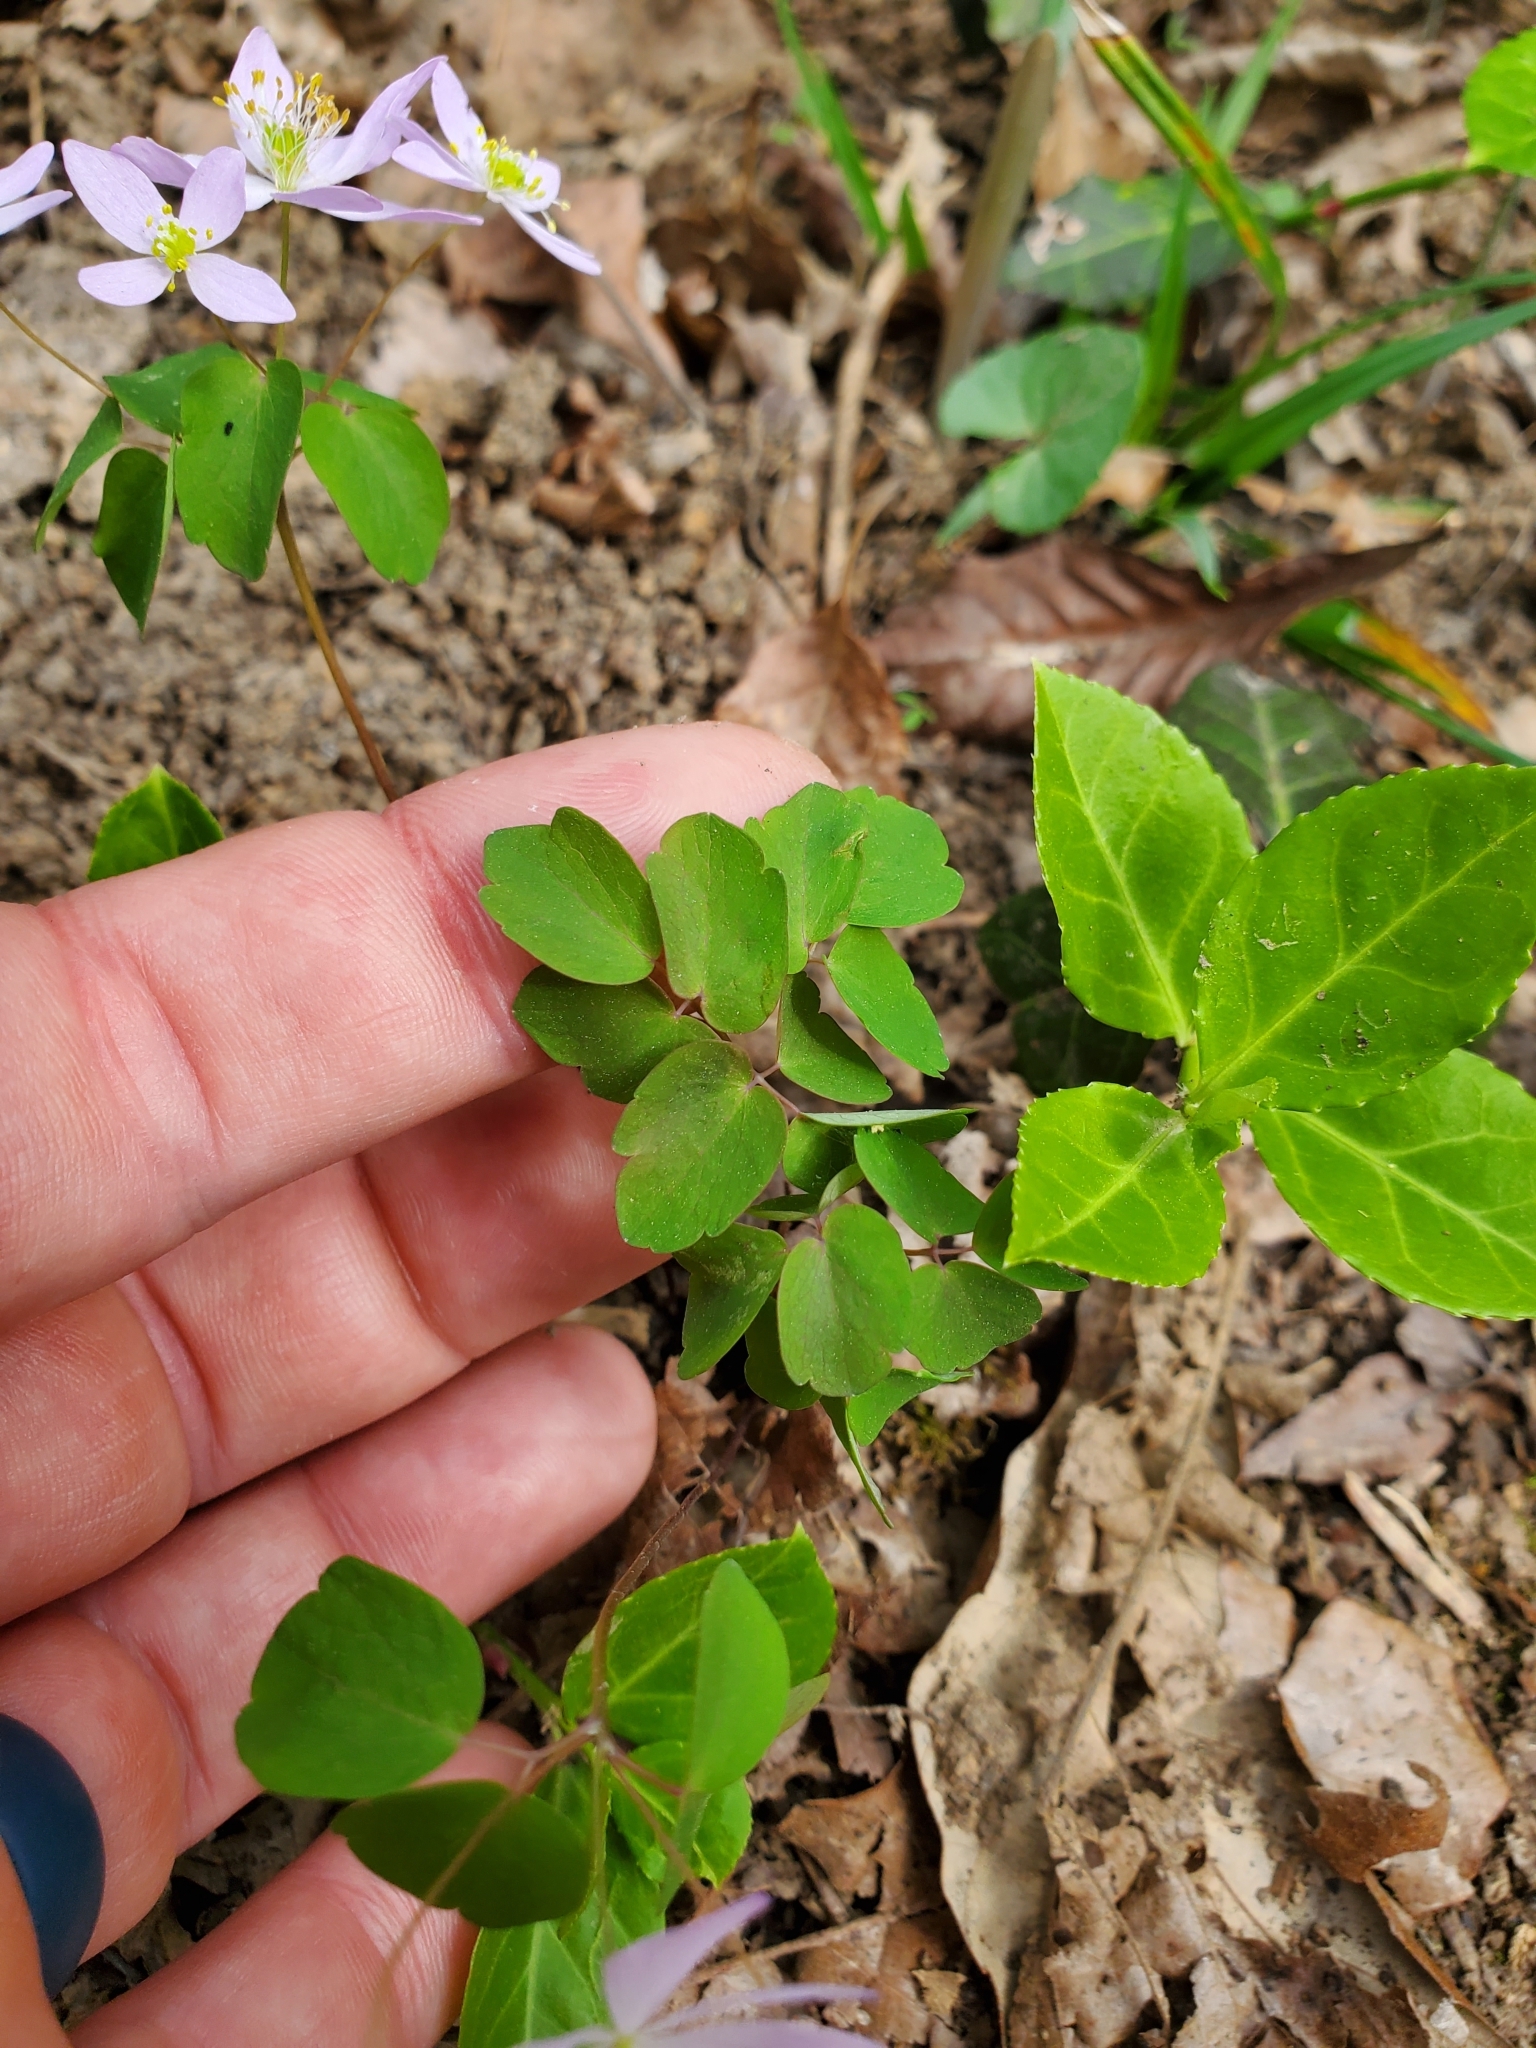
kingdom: Plantae
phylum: Tracheophyta
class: Magnoliopsida
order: Ranunculales
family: Ranunculaceae
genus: Thalictrum
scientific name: Thalictrum thalictroides
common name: Rue-anemone
